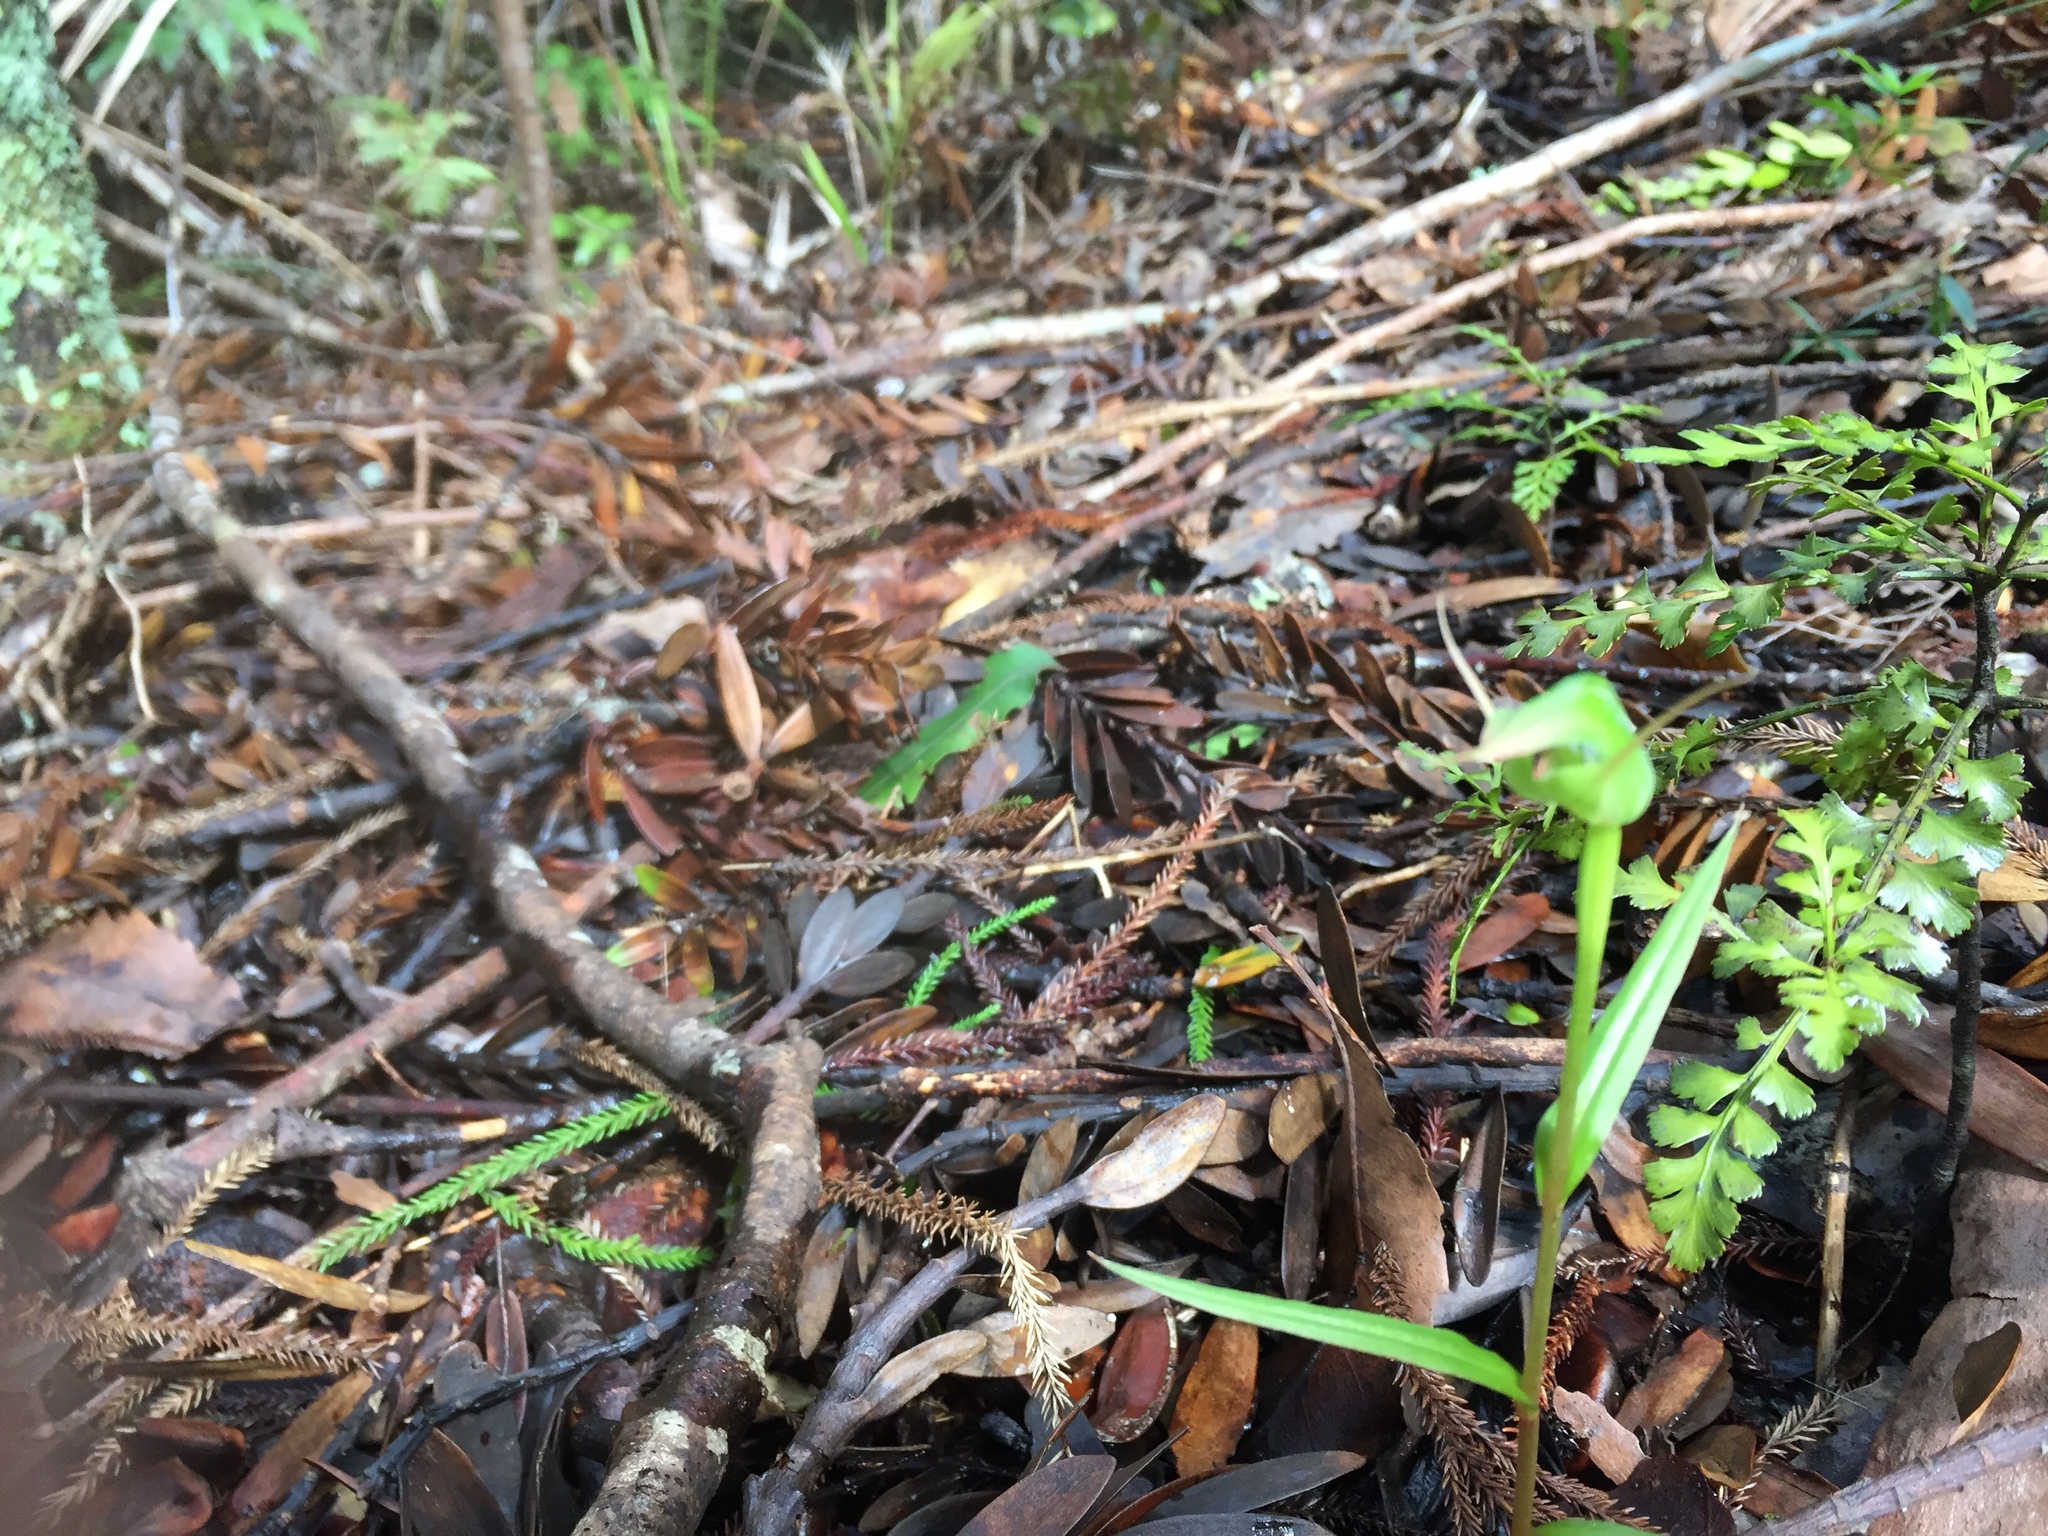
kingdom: Plantae
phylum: Tracheophyta
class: Liliopsida
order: Asparagales
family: Orchidaceae
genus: Pterostylis
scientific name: Pterostylis agathicola
